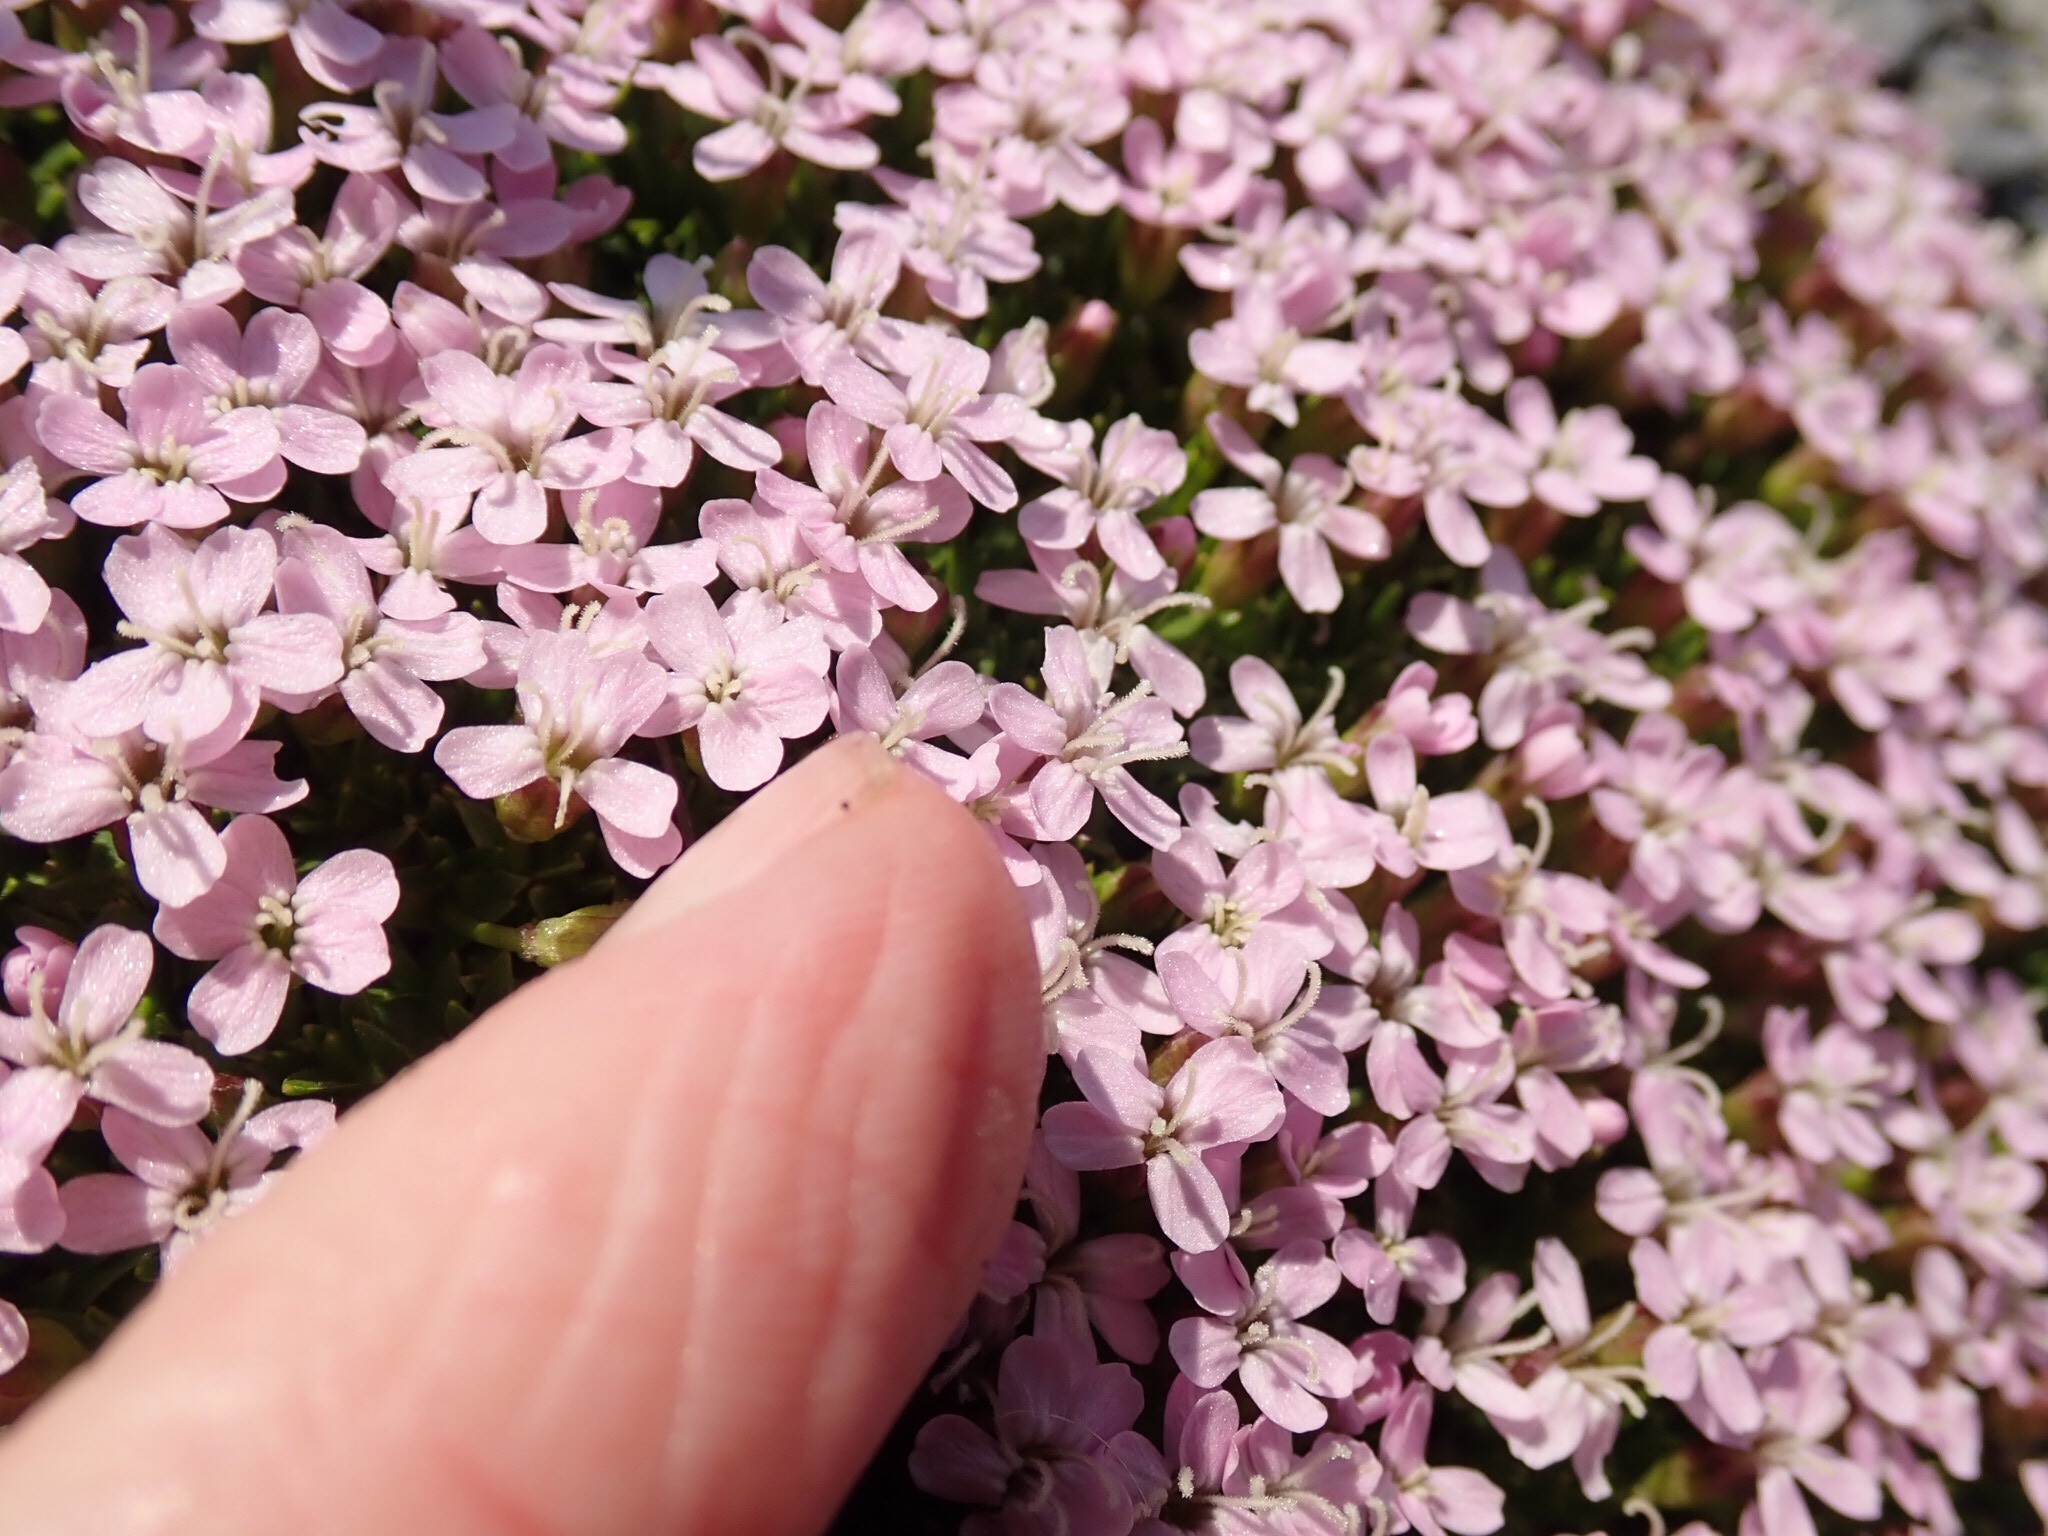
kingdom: Plantae
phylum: Tracheophyta
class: Magnoliopsida
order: Caryophyllales
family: Caryophyllaceae
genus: Silene
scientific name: Silene acaulis
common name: Moss campion
